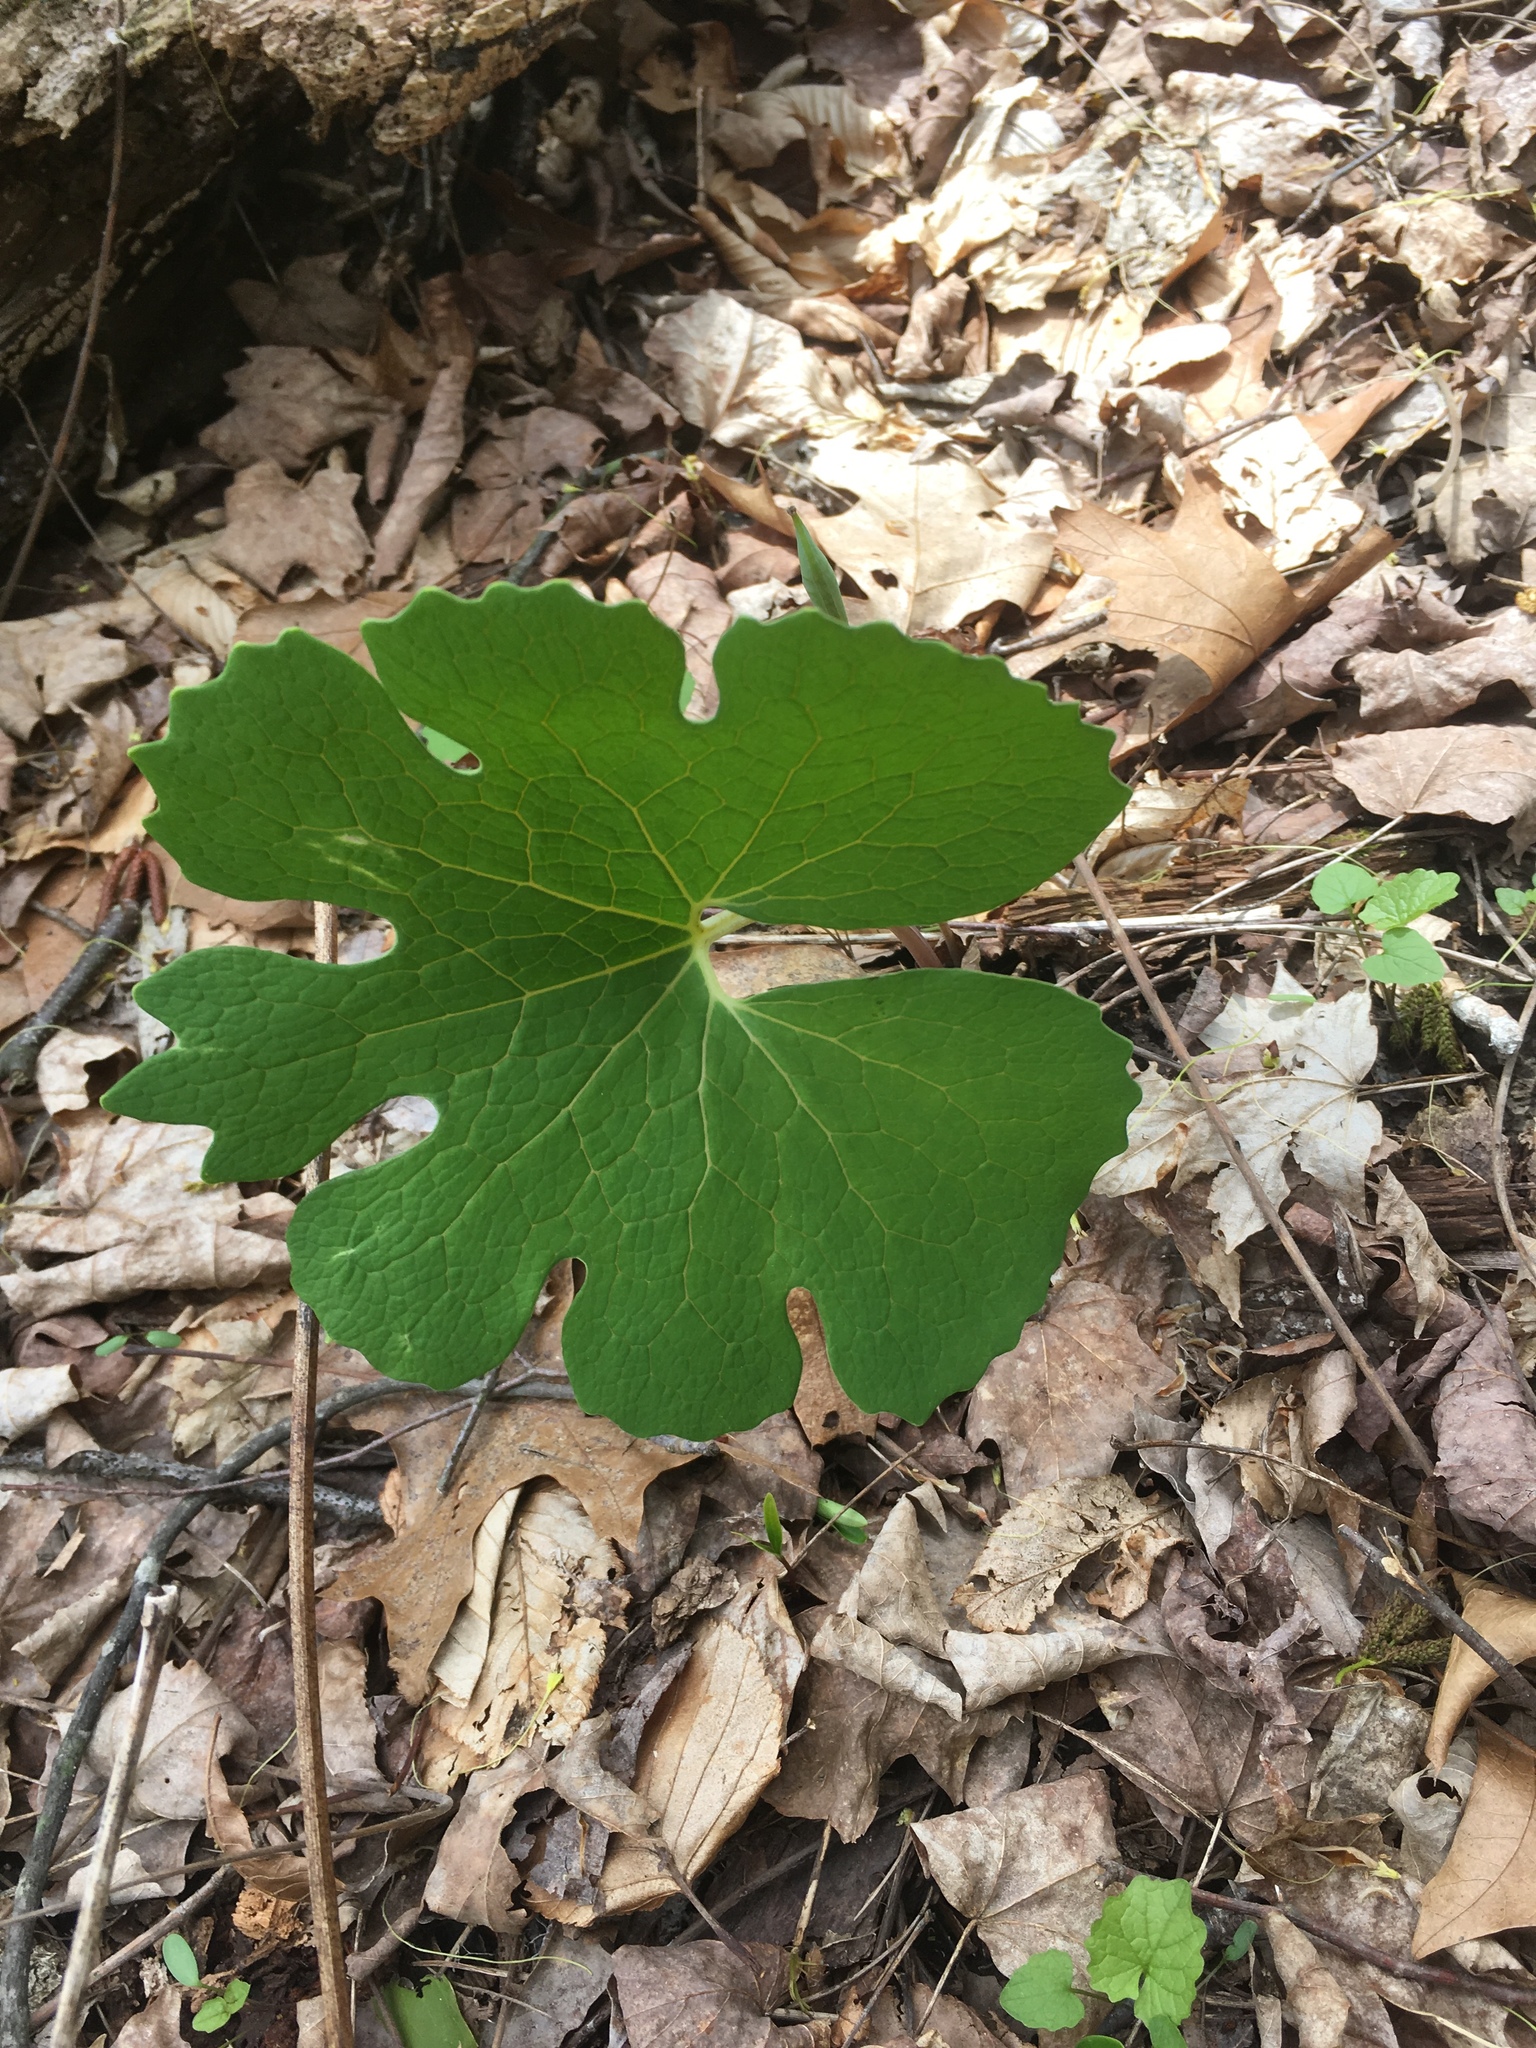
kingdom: Plantae
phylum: Tracheophyta
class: Magnoliopsida
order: Ranunculales
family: Papaveraceae
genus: Sanguinaria
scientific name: Sanguinaria canadensis
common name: Bloodroot
